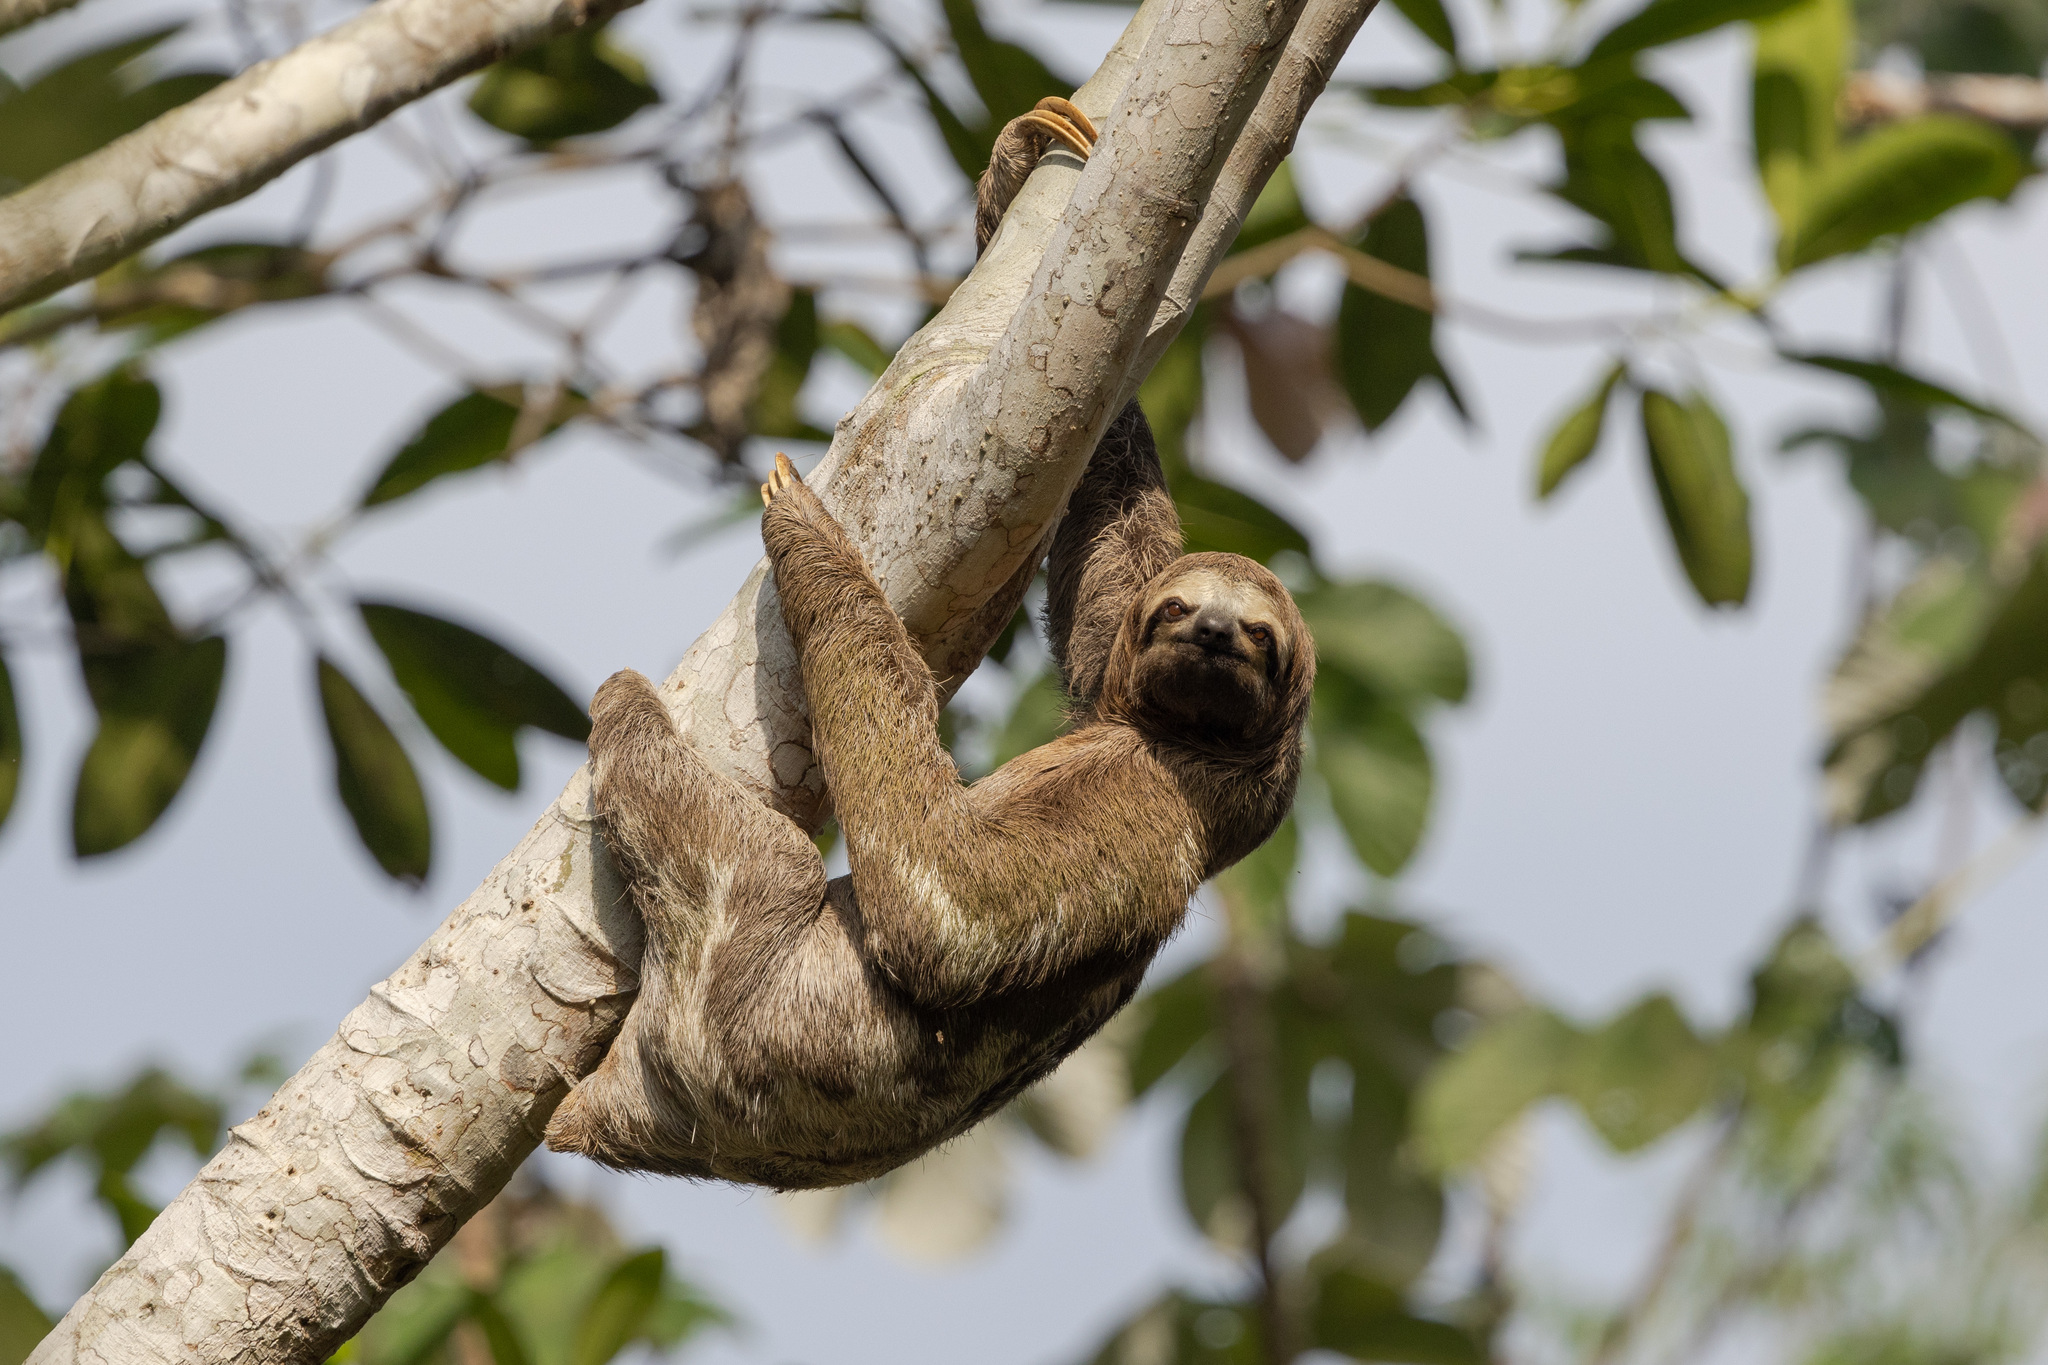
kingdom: Animalia
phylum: Chordata
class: Mammalia
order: Pilosa
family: Bradypodidae
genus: Bradypus
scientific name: Bradypus variegatus
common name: Brown-throated three-toed sloth
